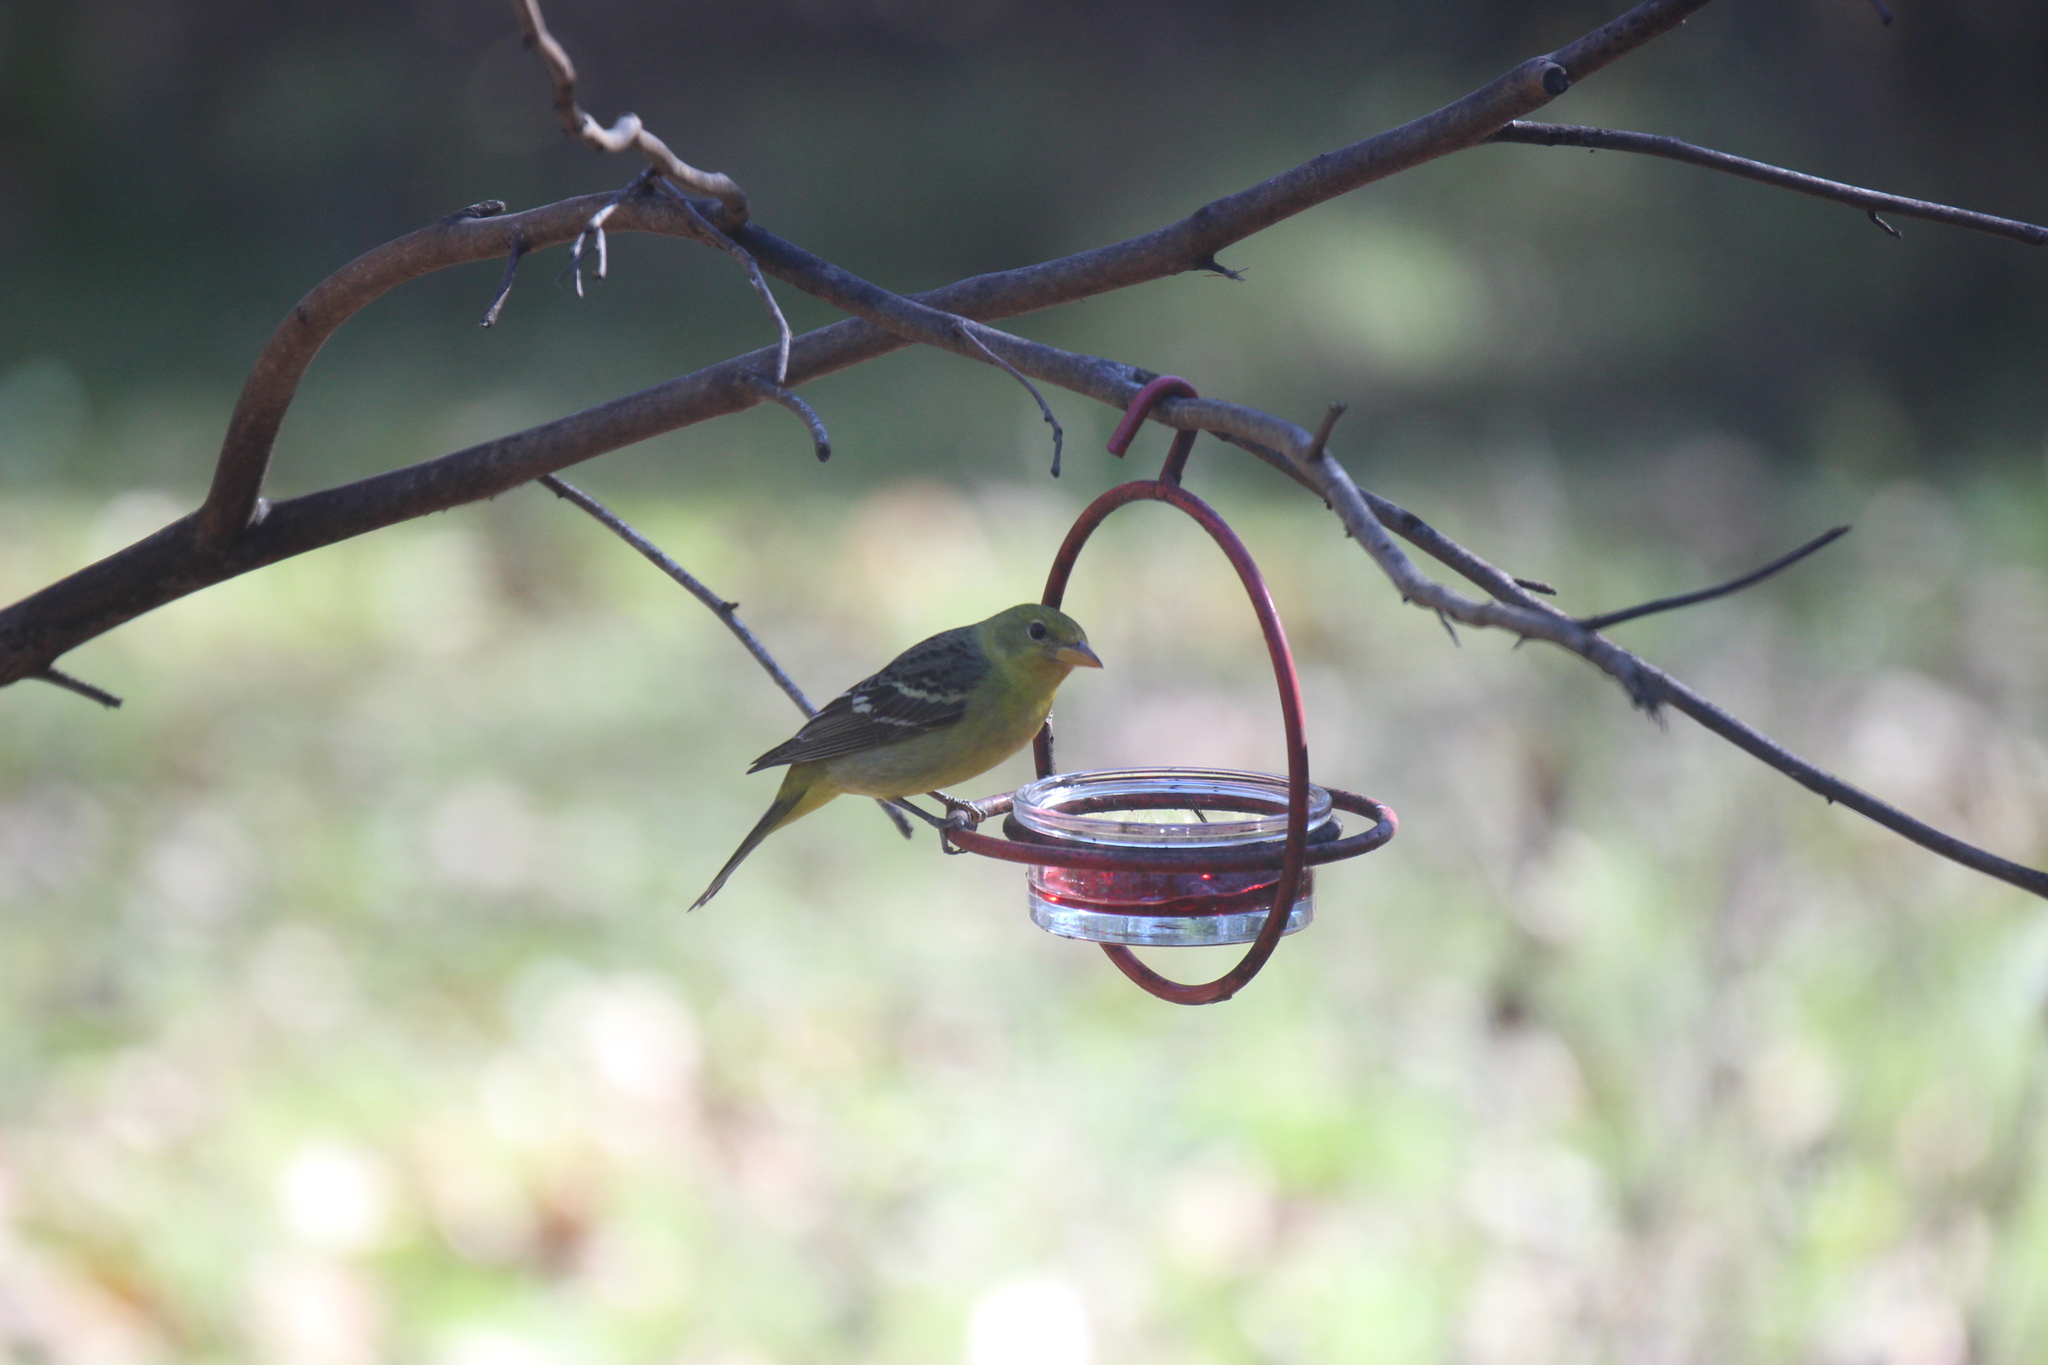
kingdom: Animalia
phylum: Chordata
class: Aves
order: Passeriformes
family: Cardinalidae
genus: Piranga
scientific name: Piranga ludoviciana
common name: Western tanager
